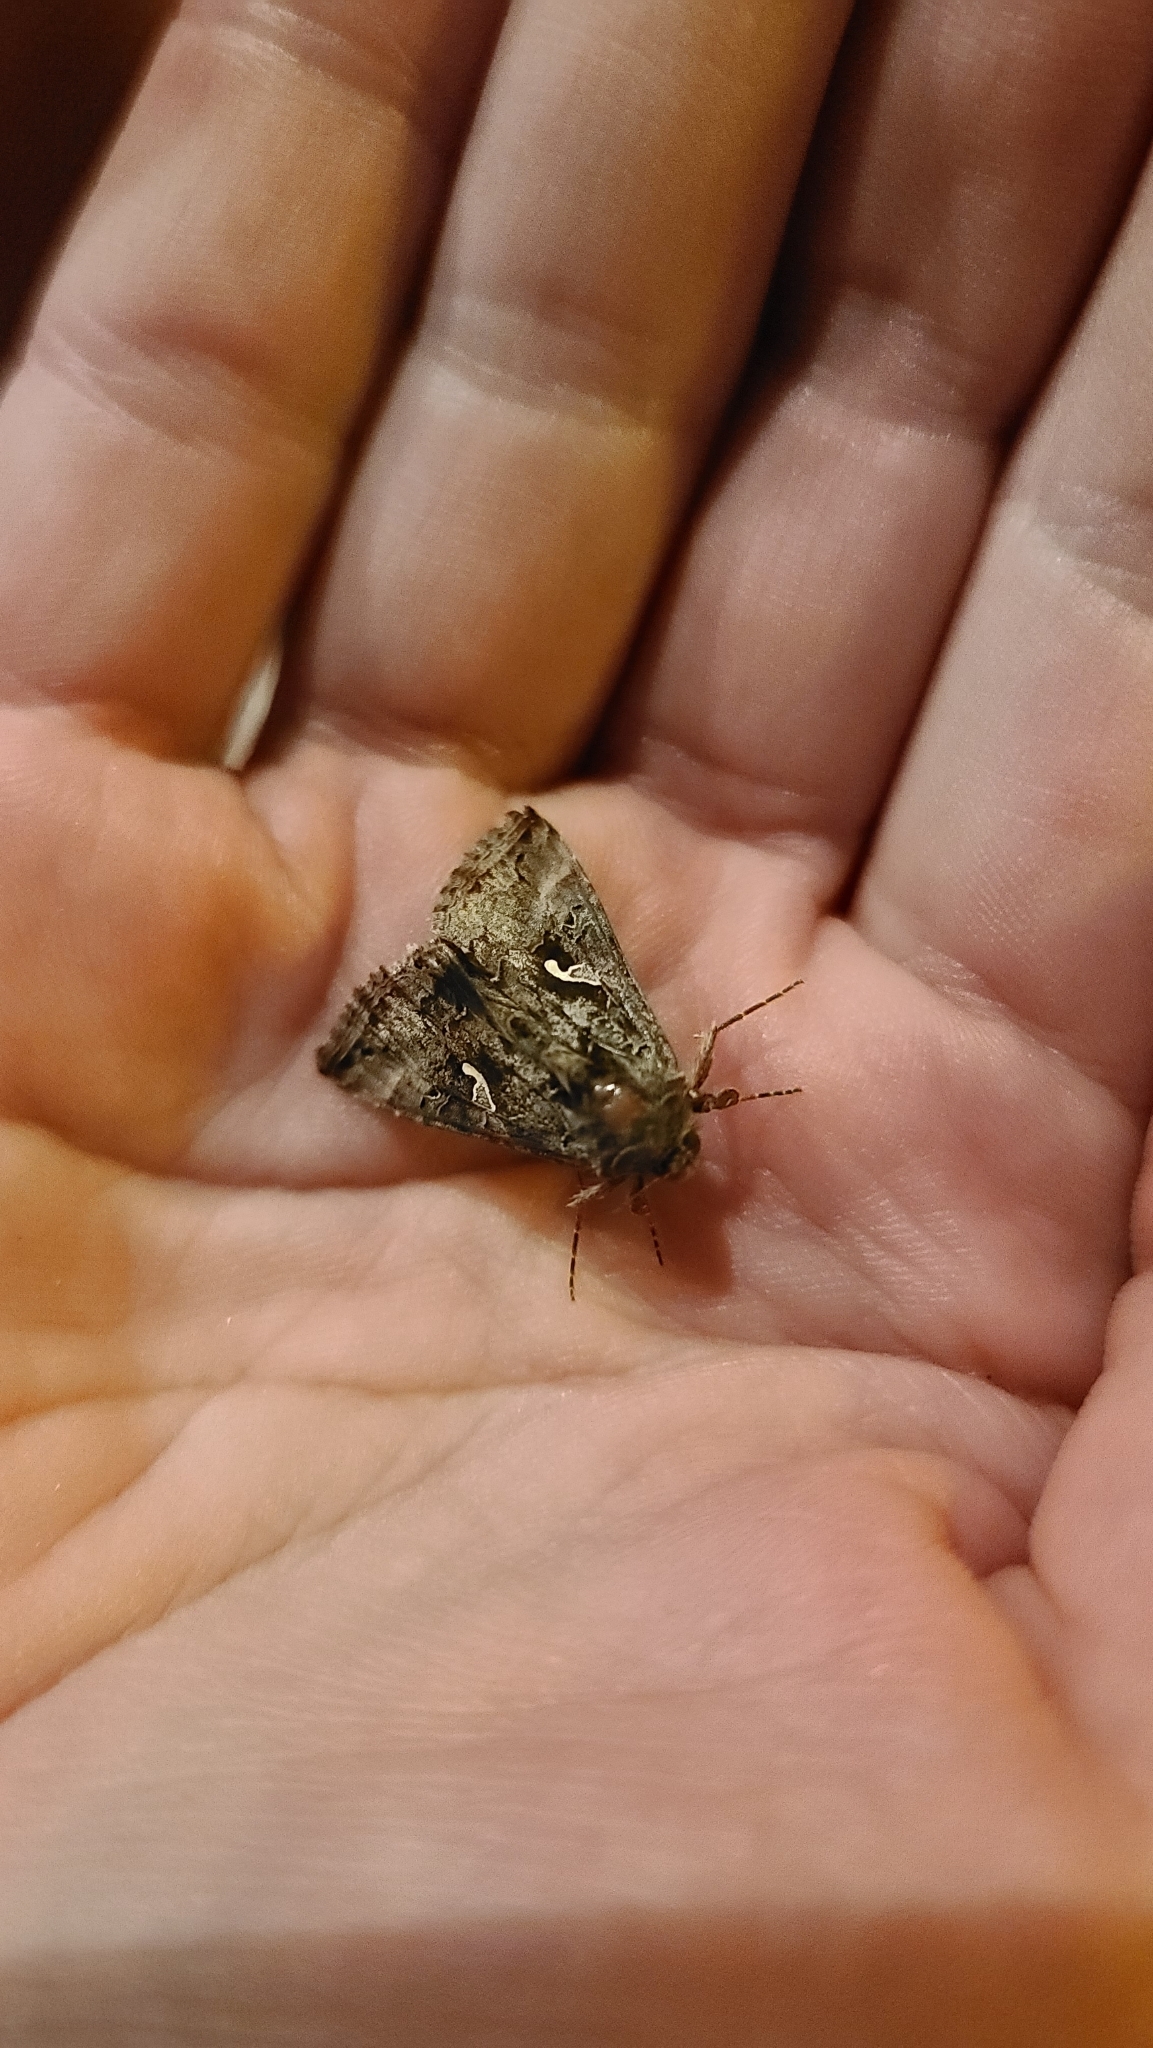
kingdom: Animalia
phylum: Arthropoda
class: Insecta
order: Lepidoptera
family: Noctuidae
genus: Autographa
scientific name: Autographa gamma
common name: Silver y
